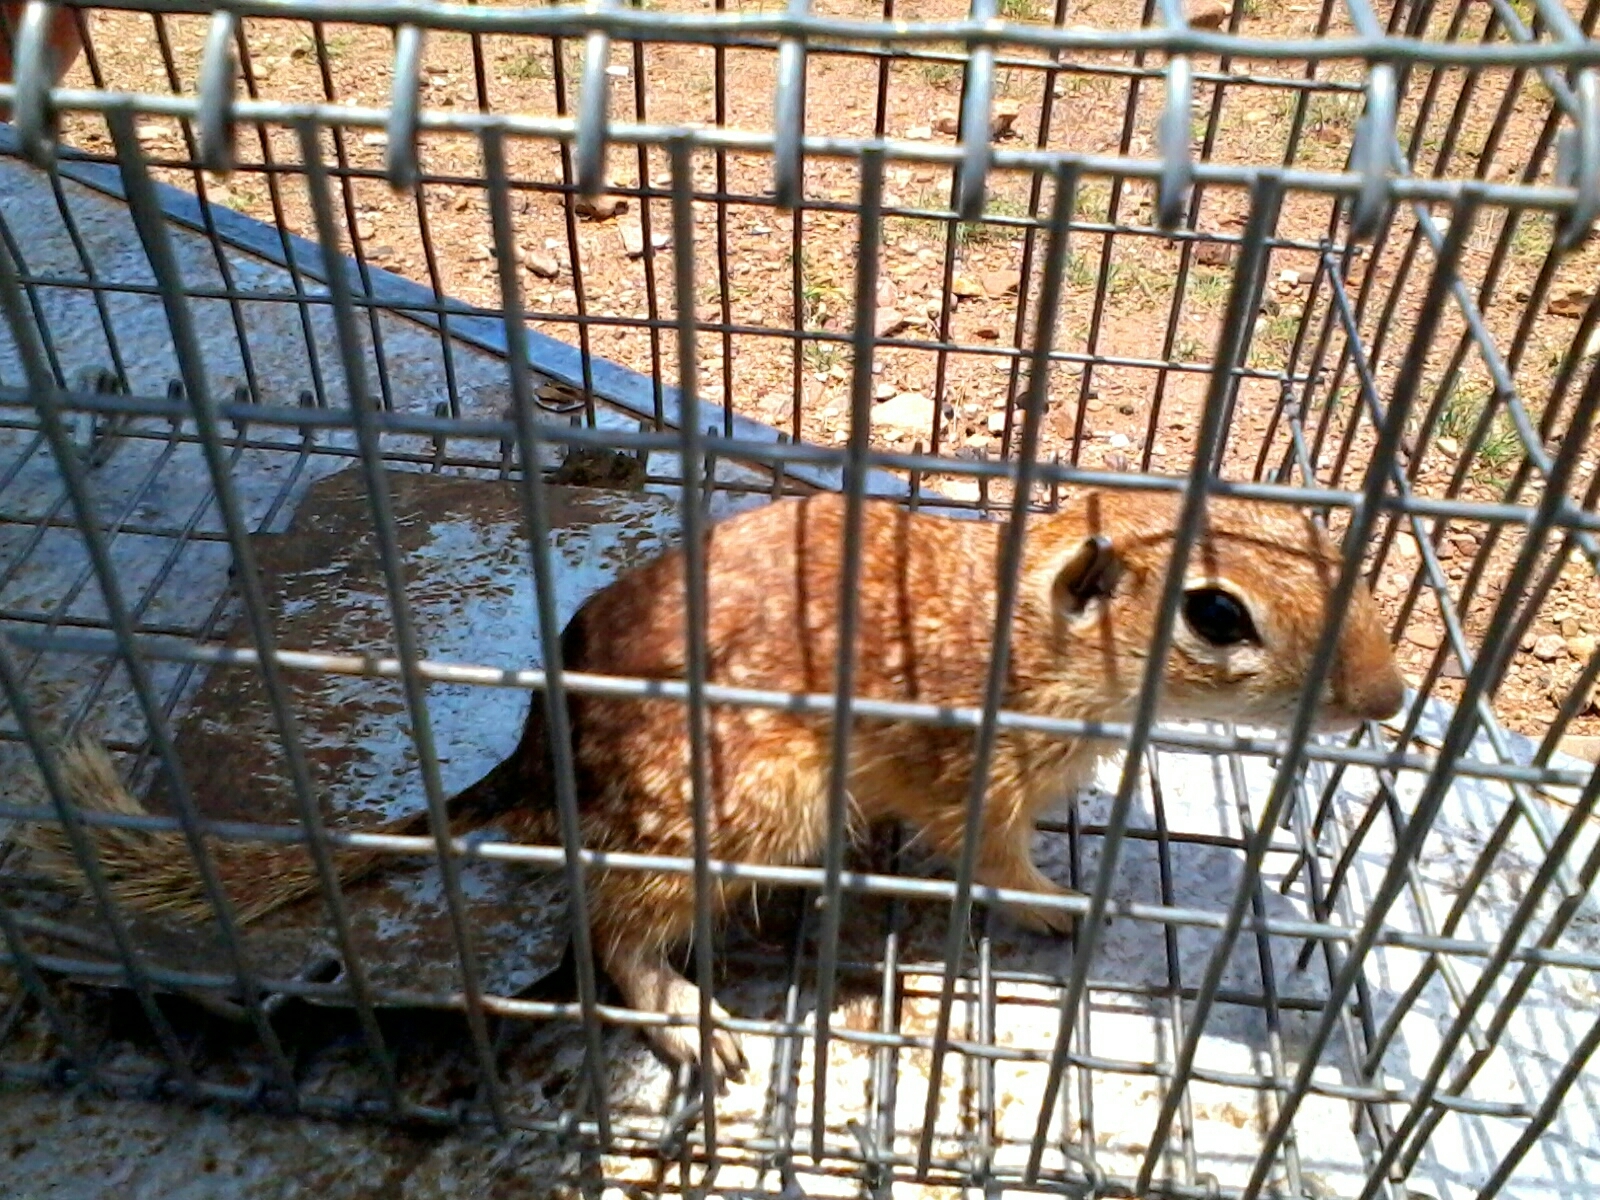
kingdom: Animalia
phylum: Chordata
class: Mammalia
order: Rodentia
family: Sciuridae
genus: Xerospermophilus
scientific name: Xerospermophilus spilosoma
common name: Spotted ground squirrel
